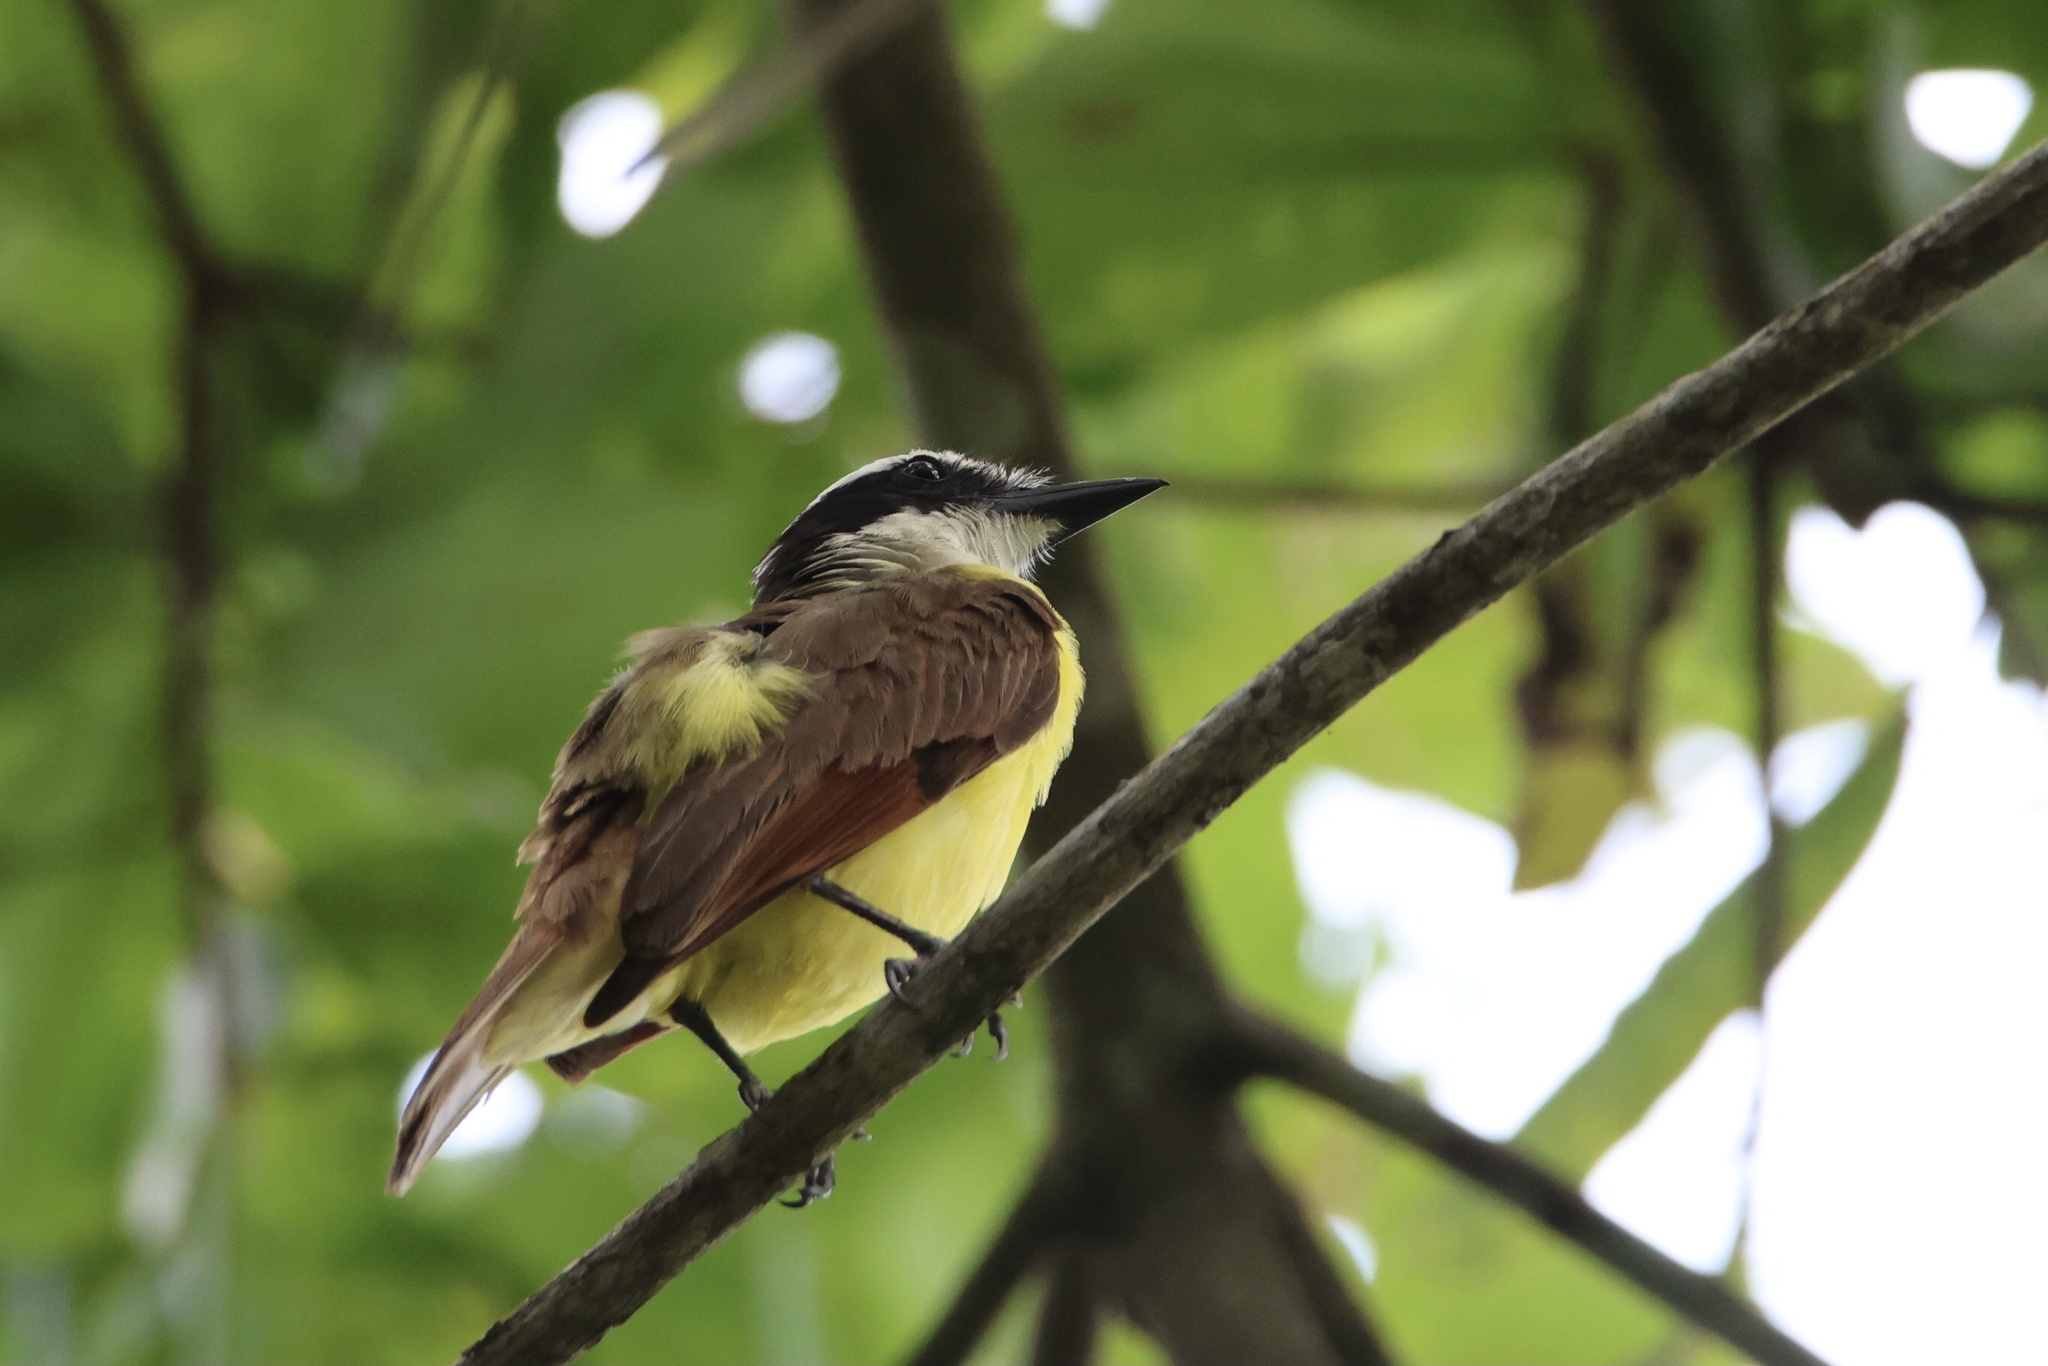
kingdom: Animalia
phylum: Chordata
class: Aves
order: Passeriformes
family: Tyrannidae
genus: Pitangus
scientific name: Pitangus sulphuratus
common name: Great kiskadee
